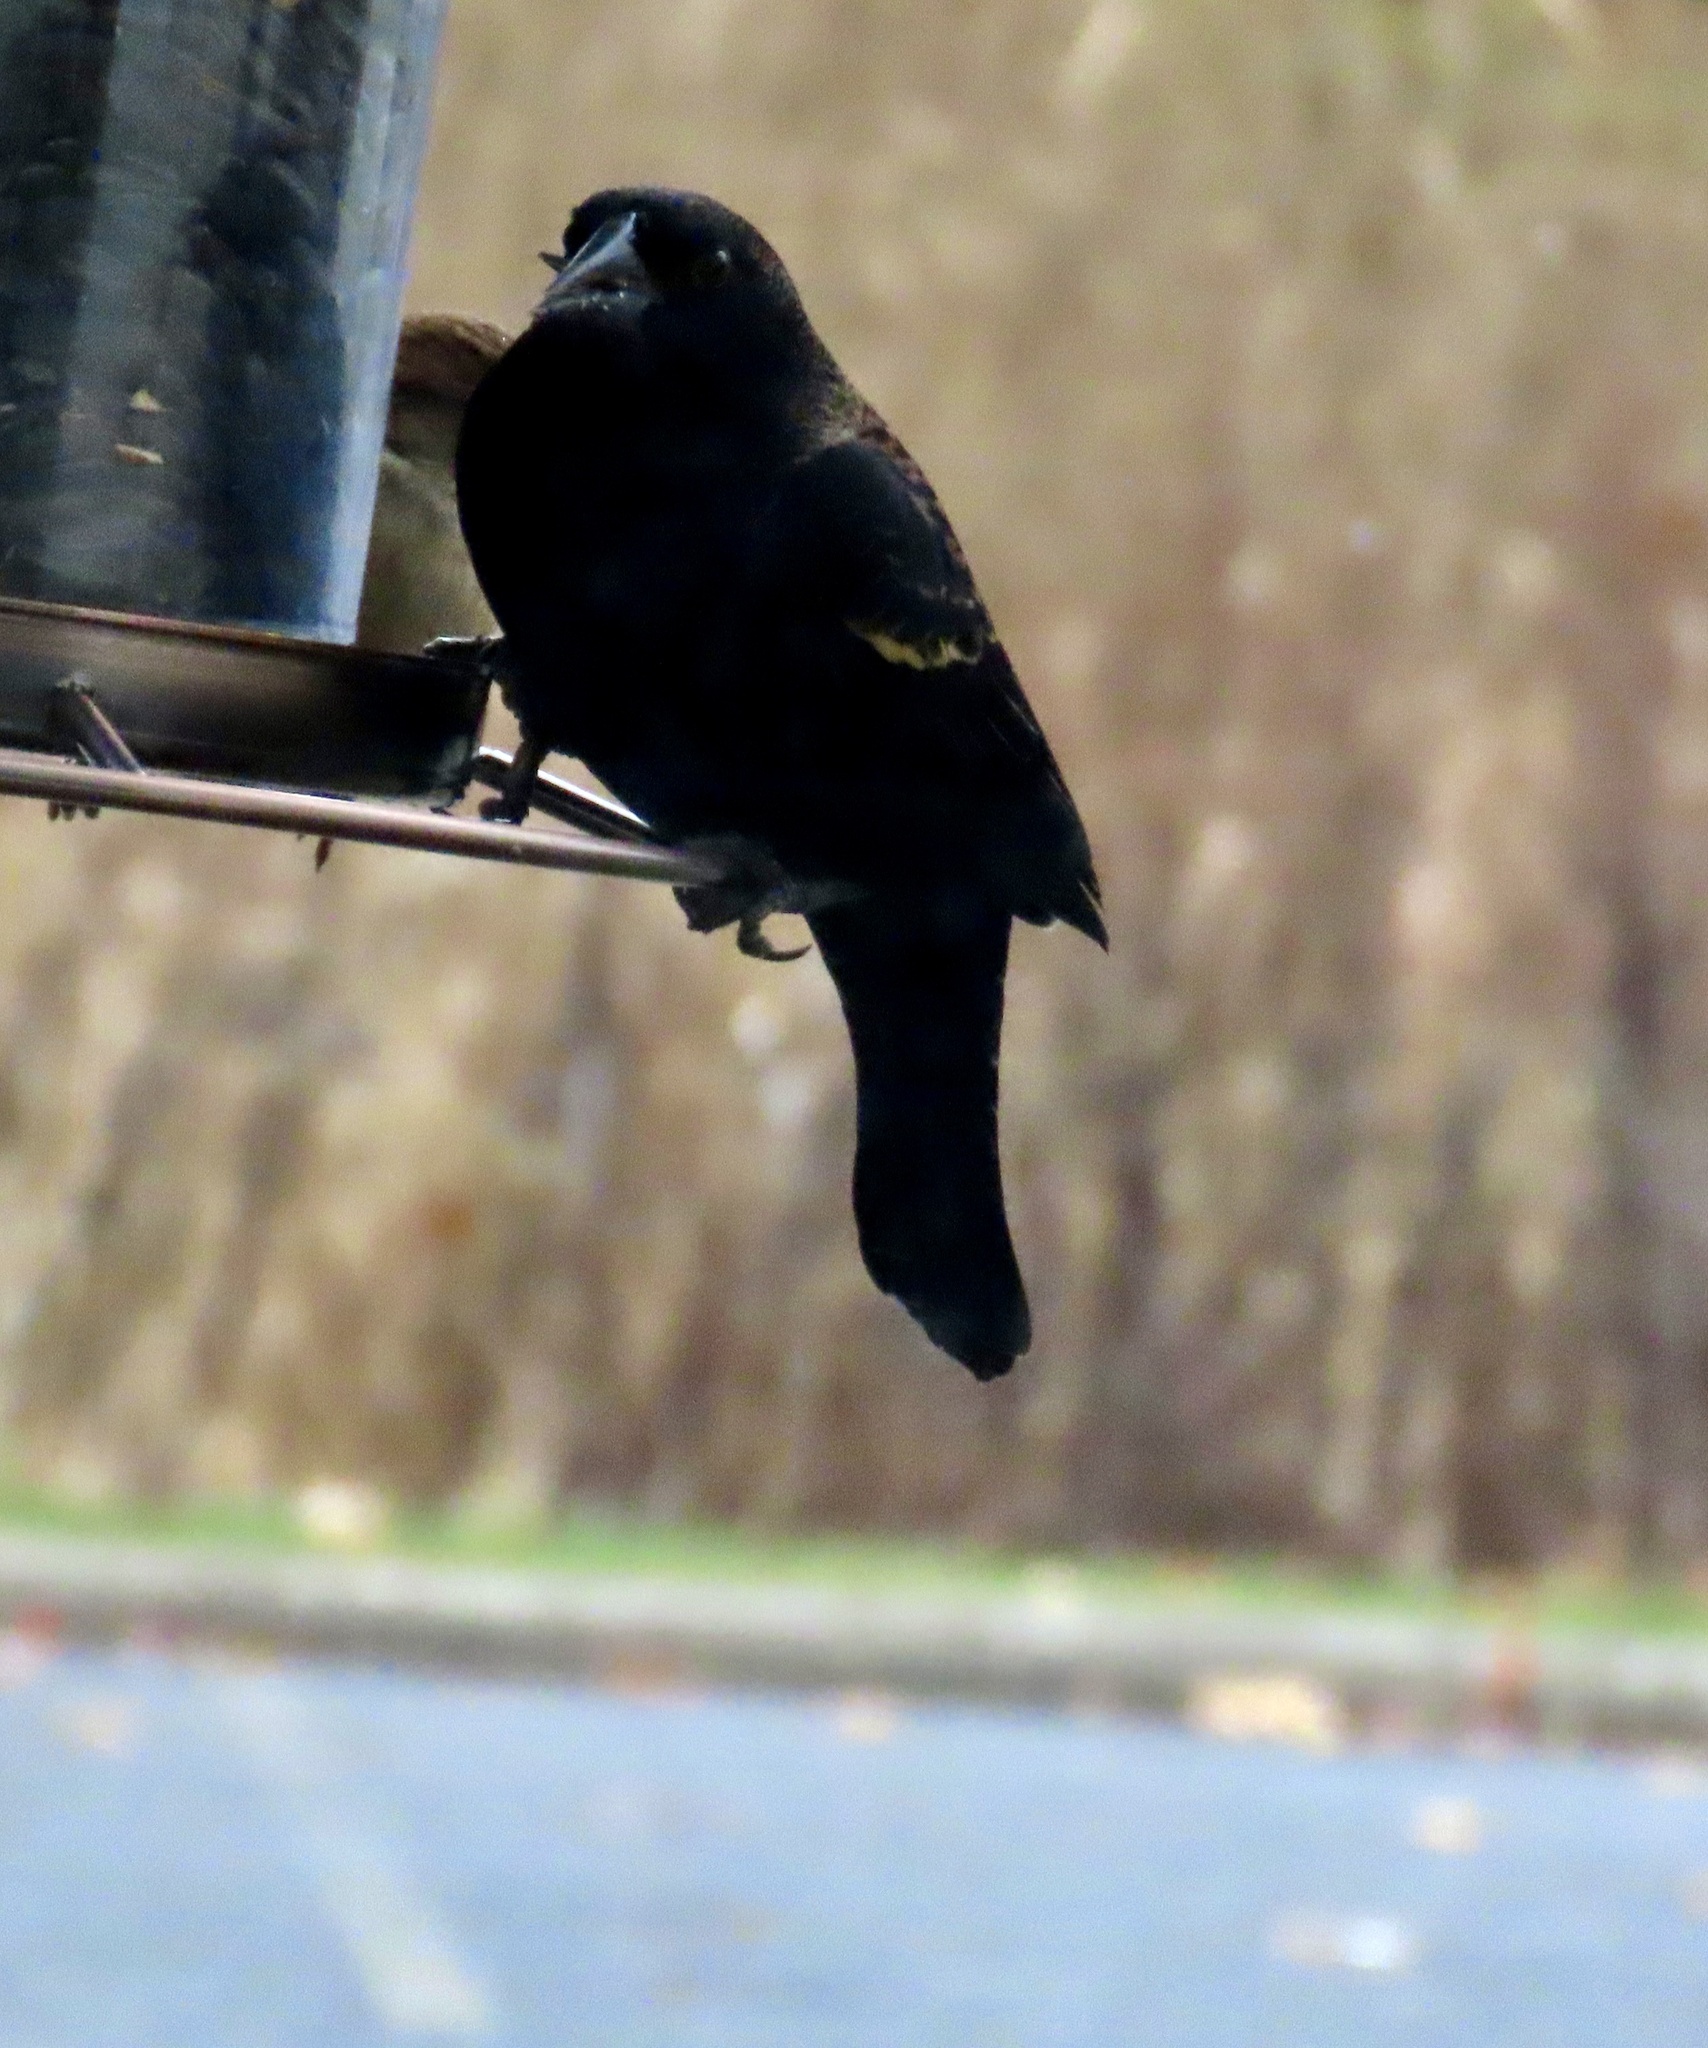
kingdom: Animalia
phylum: Chordata
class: Aves
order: Passeriformes
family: Icteridae
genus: Agelaius
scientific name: Agelaius phoeniceus
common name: Red-winged blackbird
